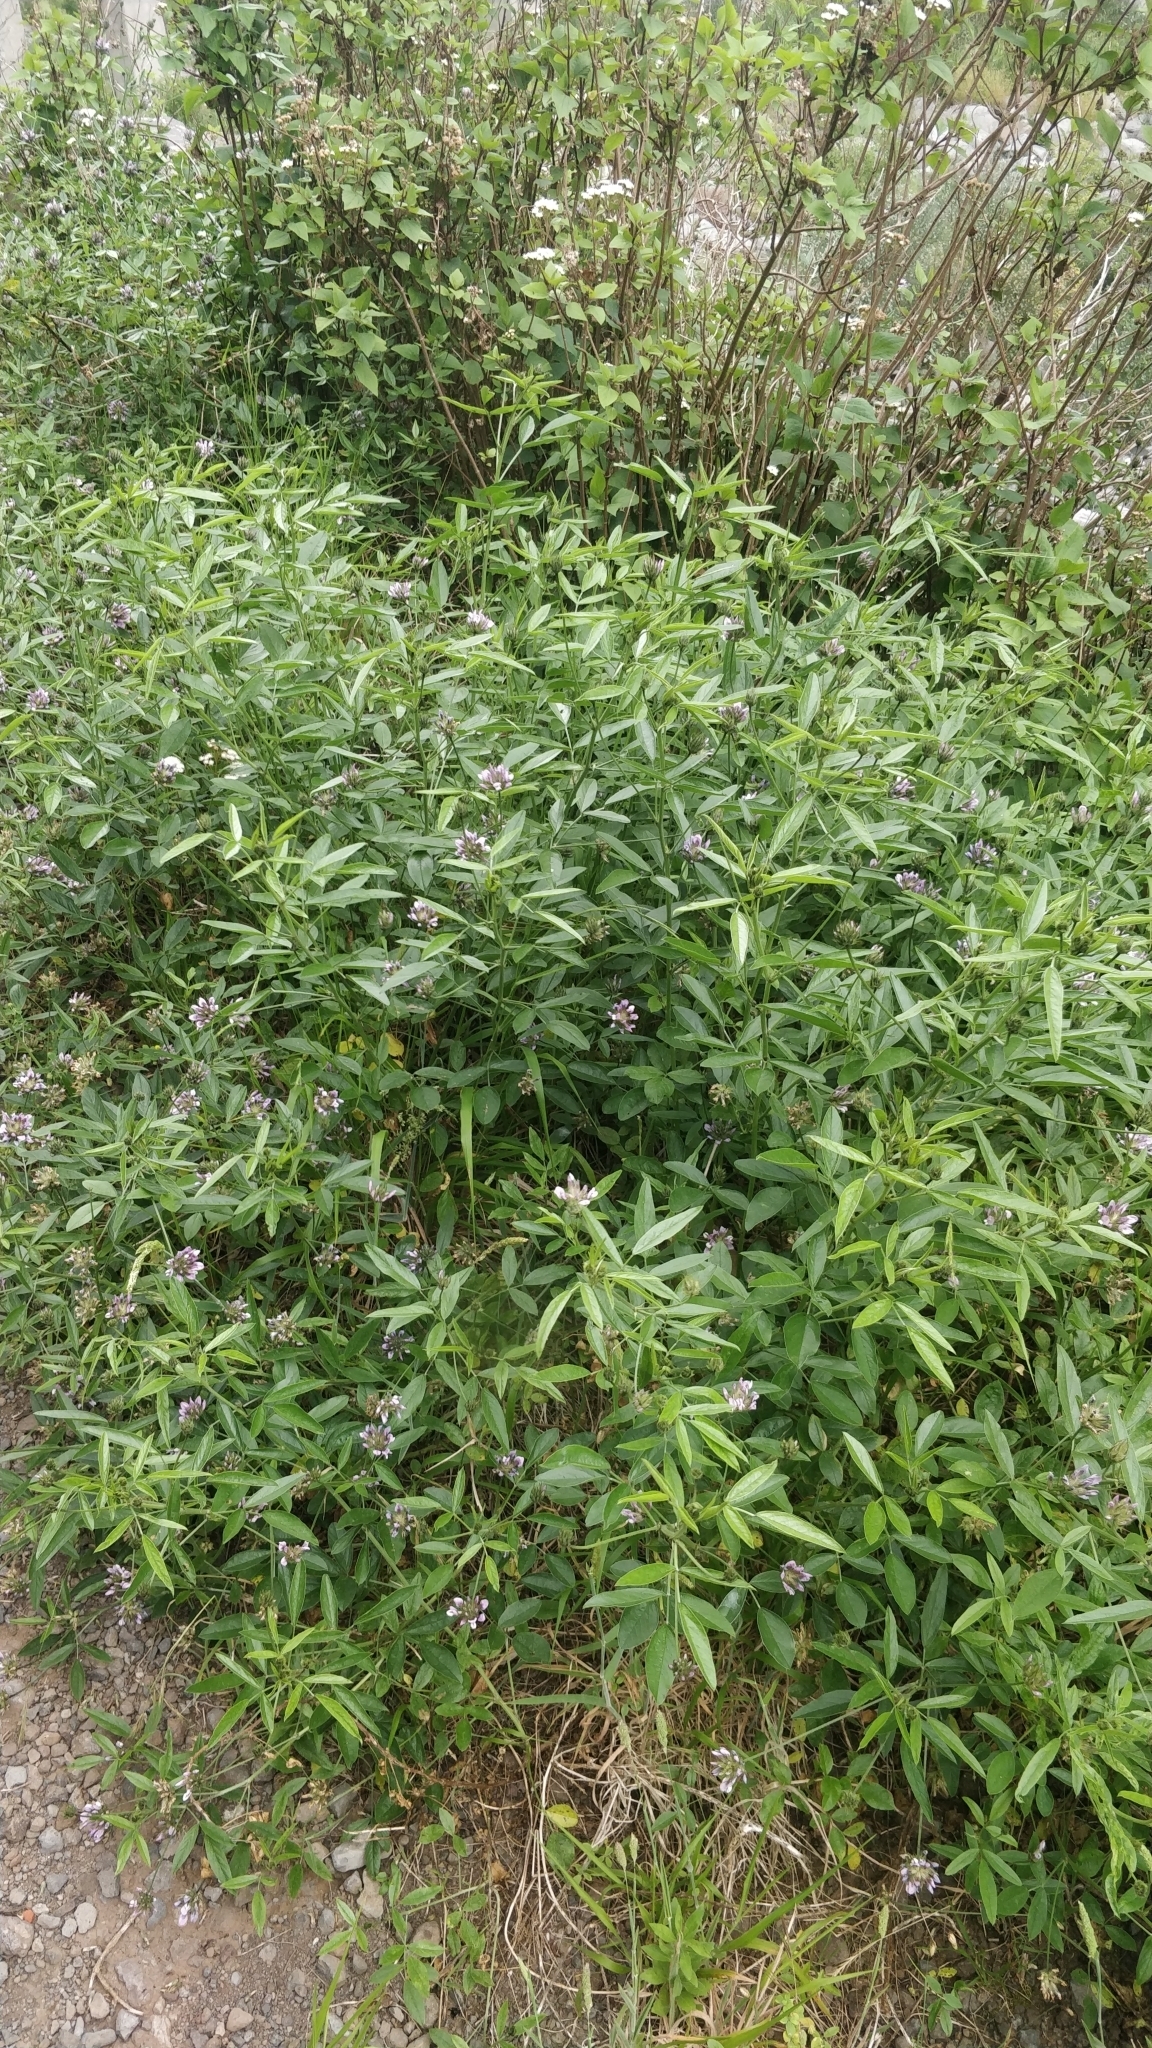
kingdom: Plantae
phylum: Tracheophyta
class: Magnoliopsida
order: Fabales
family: Fabaceae
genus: Bituminaria
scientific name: Bituminaria bituminosa
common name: Arabian pea
